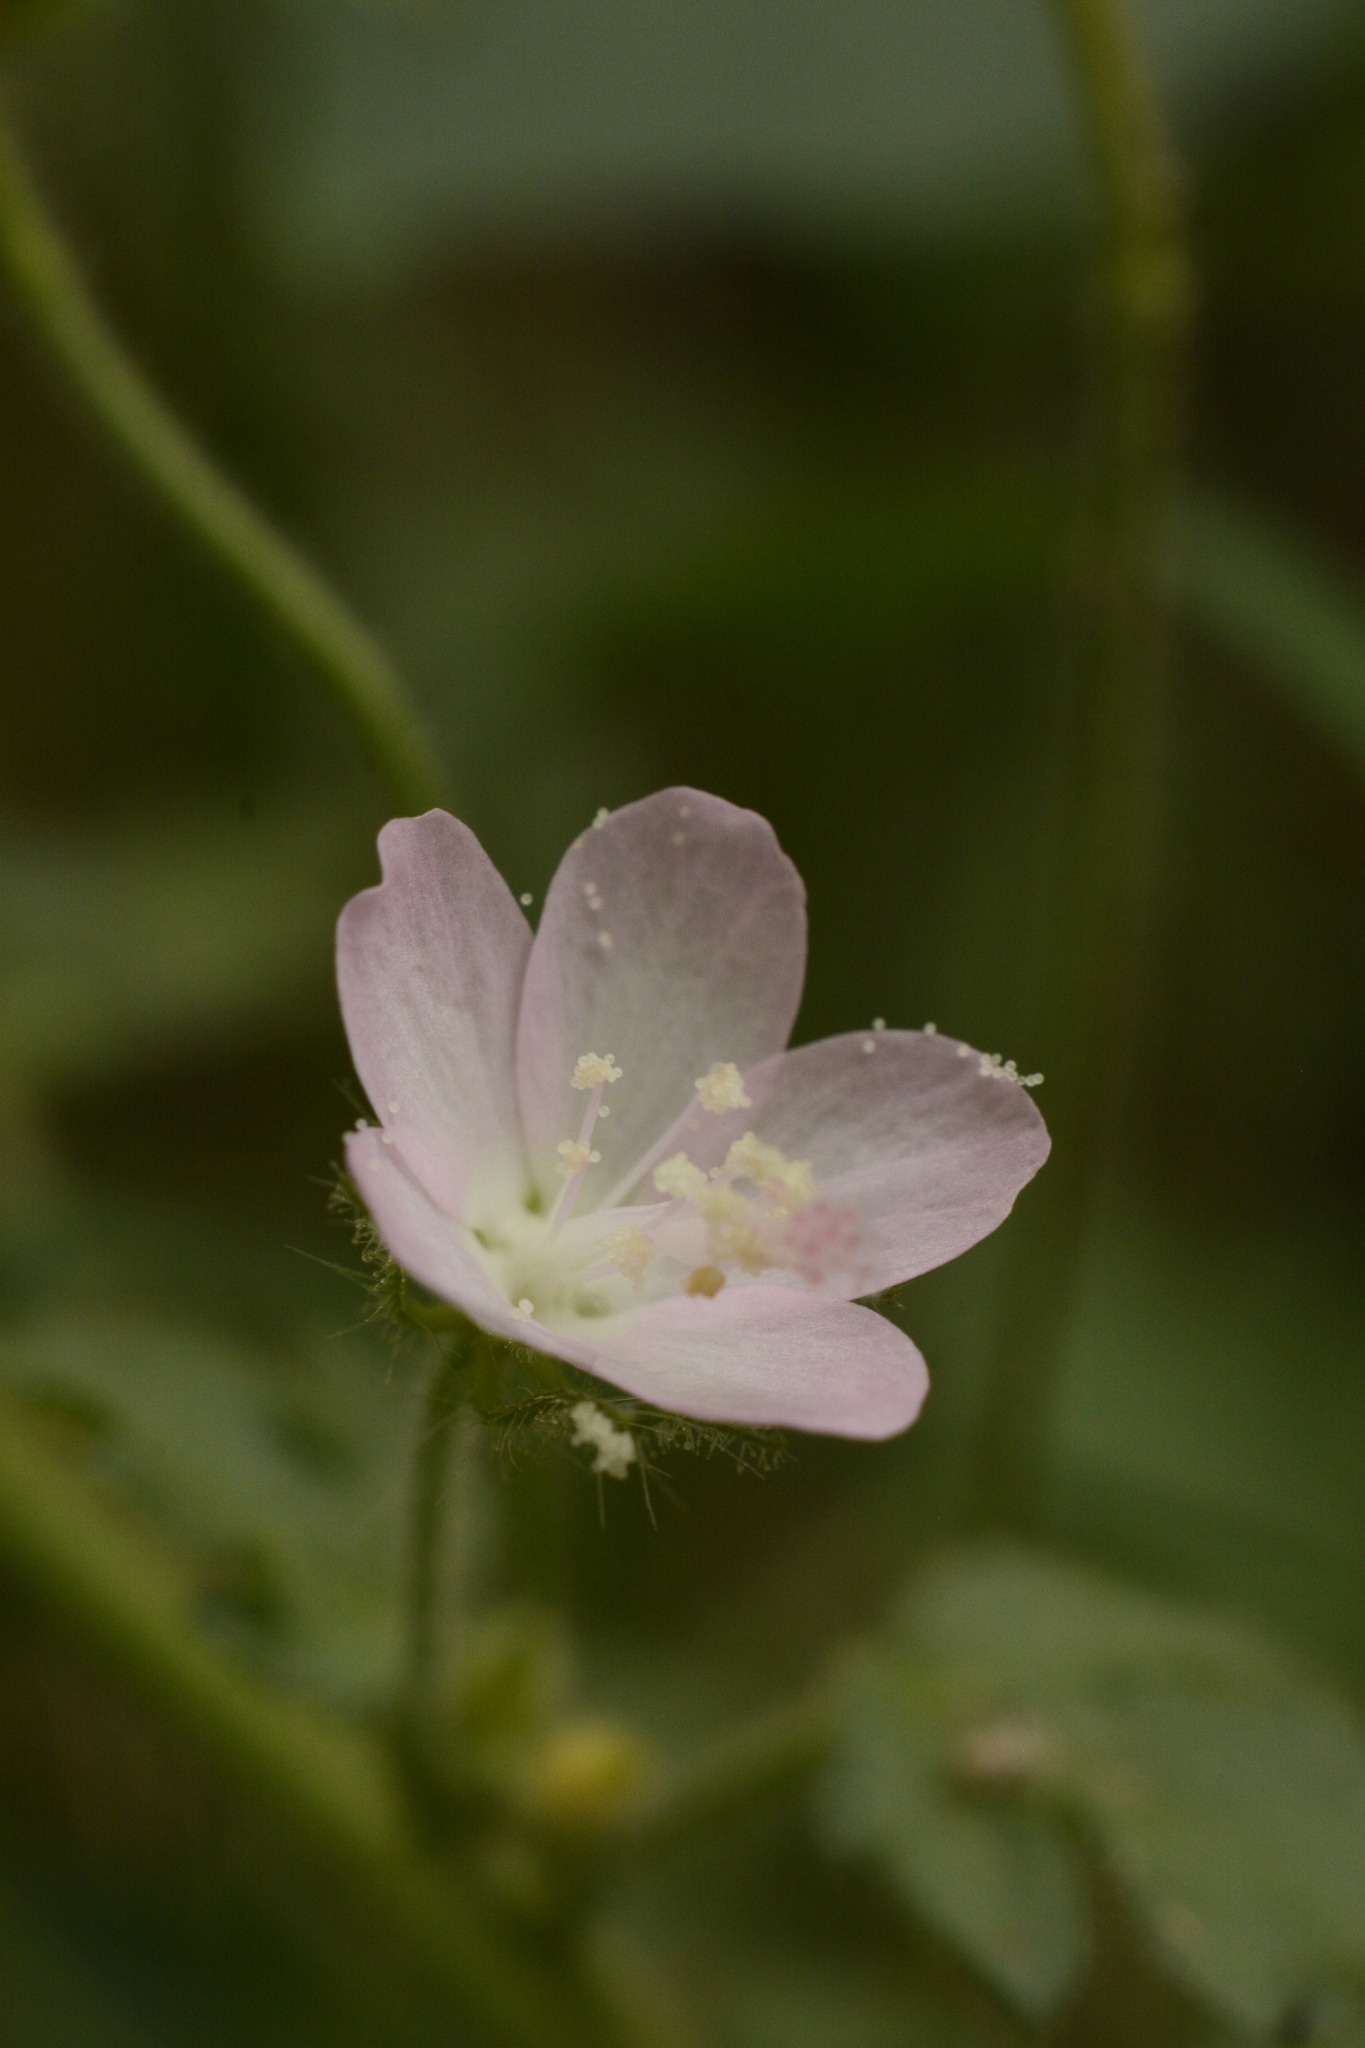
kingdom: Plantae
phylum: Tracheophyta
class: Magnoliopsida
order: Malvales
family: Malvaceae
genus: Pavonia
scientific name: Pavonia zeylanica
